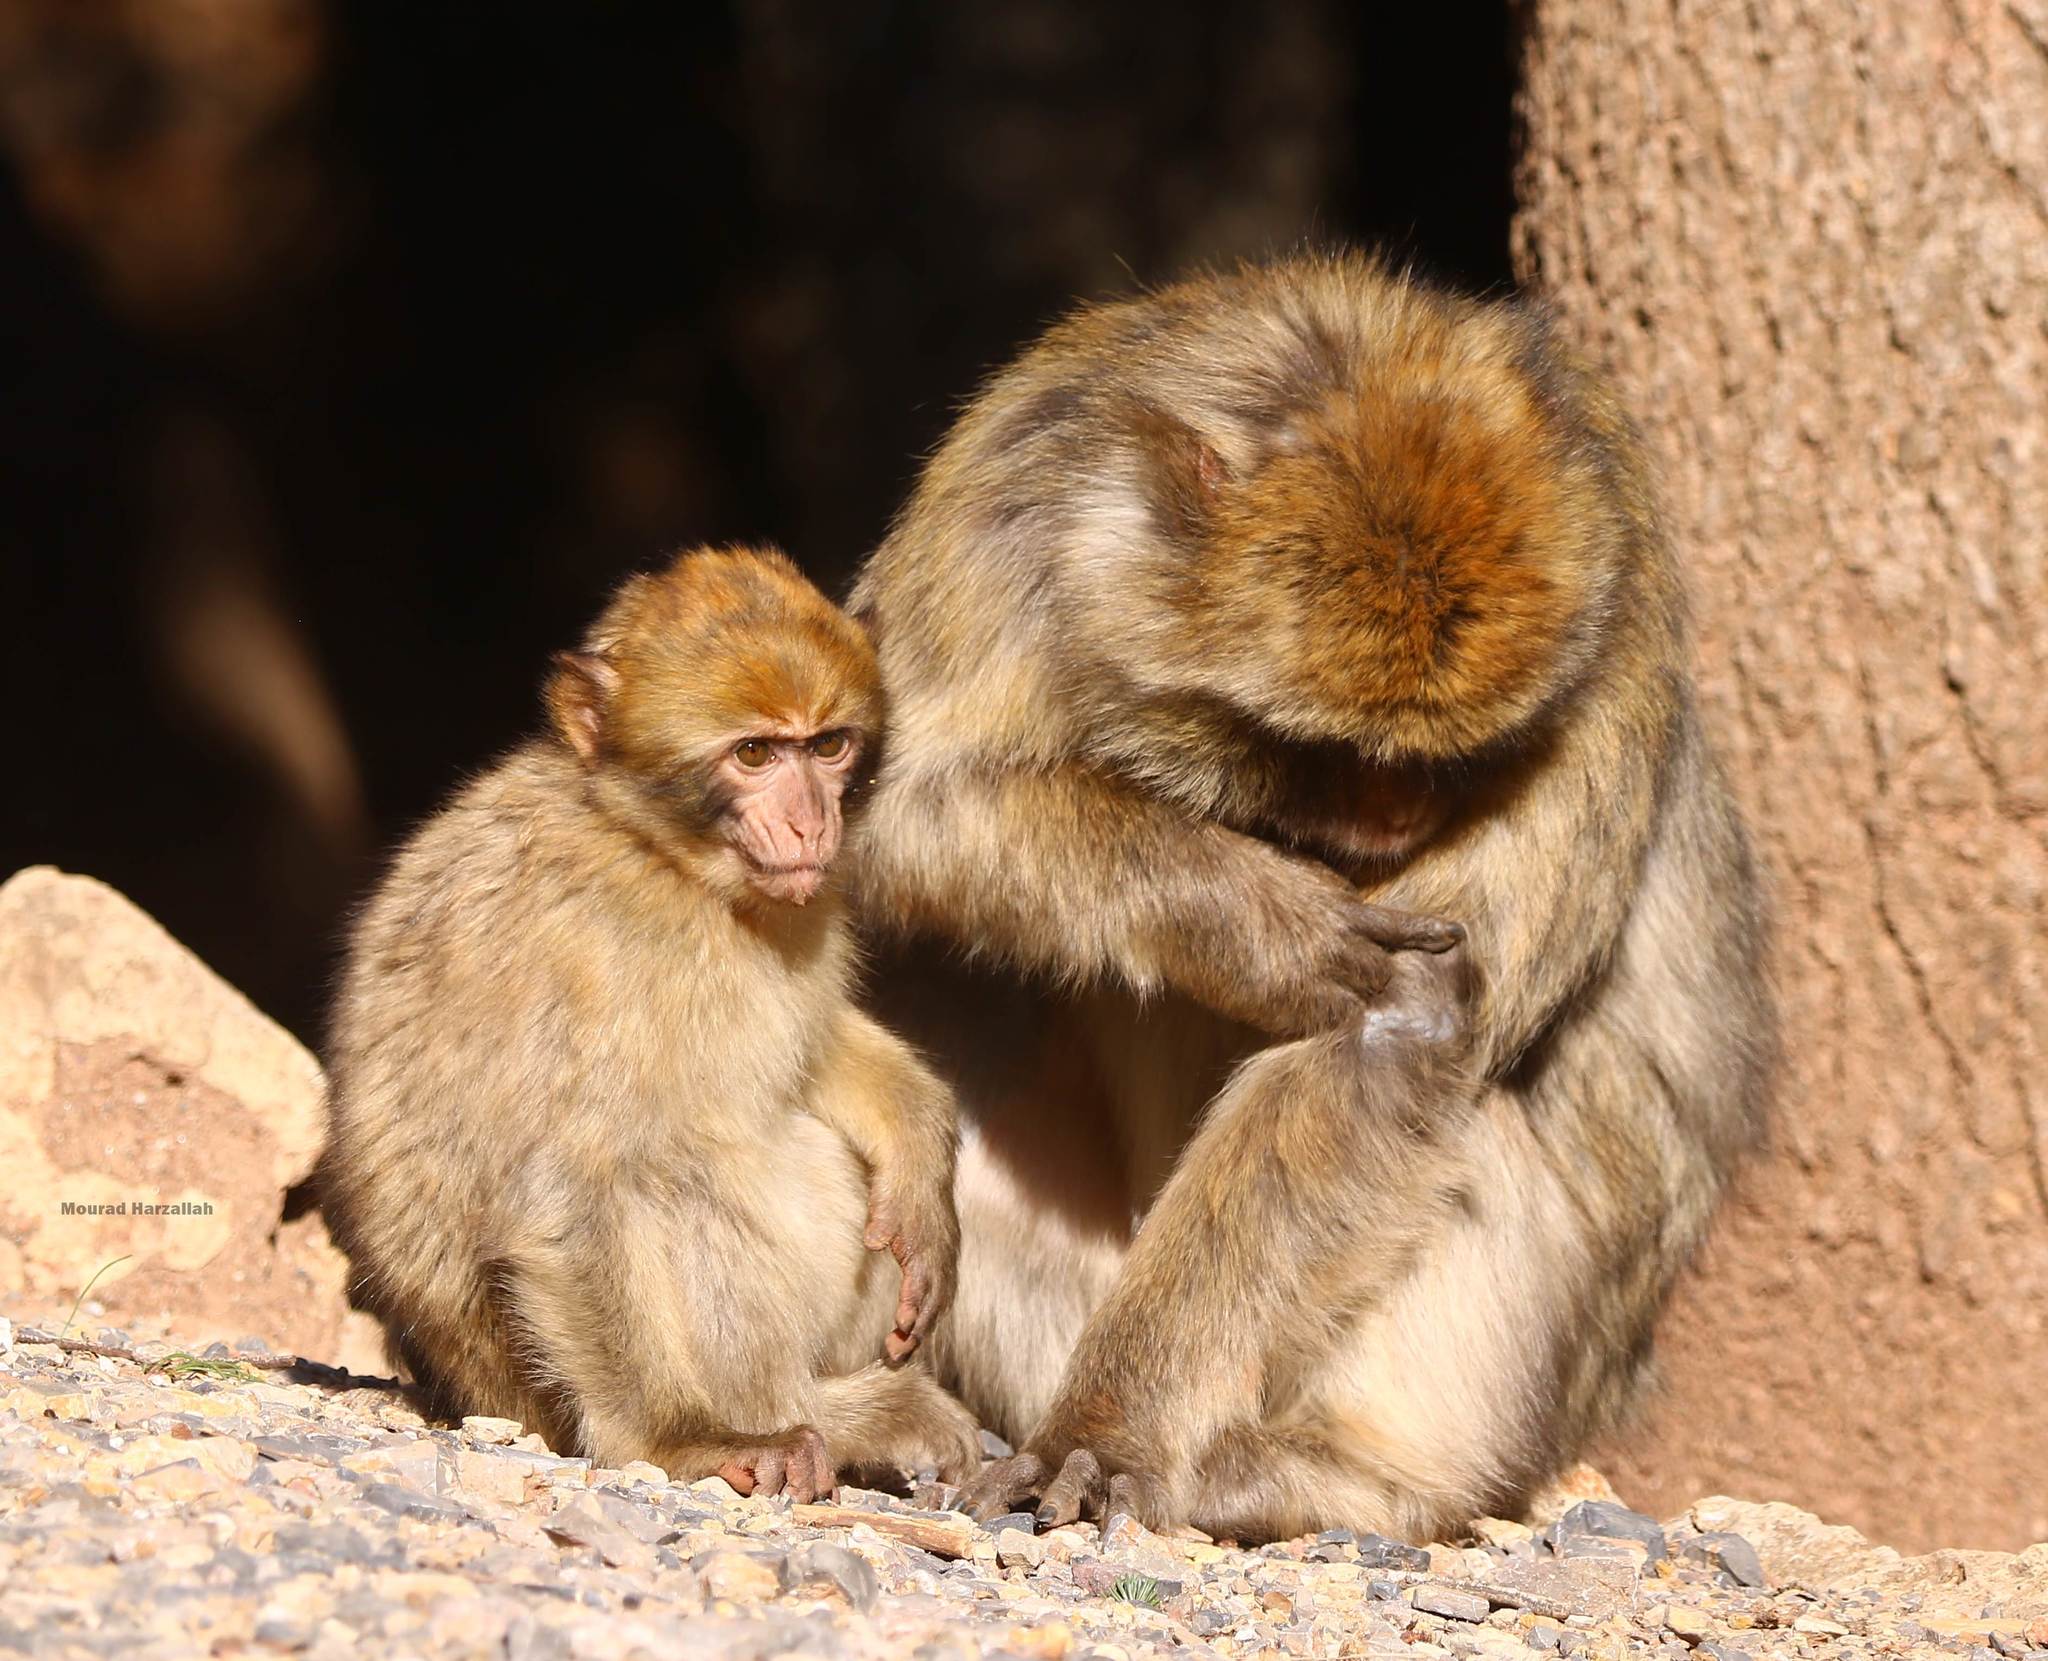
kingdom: Animalia
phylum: Chordata
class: Mammalia
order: Primates
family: Cercopithecidae
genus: Macaca
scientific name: Macaca sylvanus
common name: Barbary macaque
